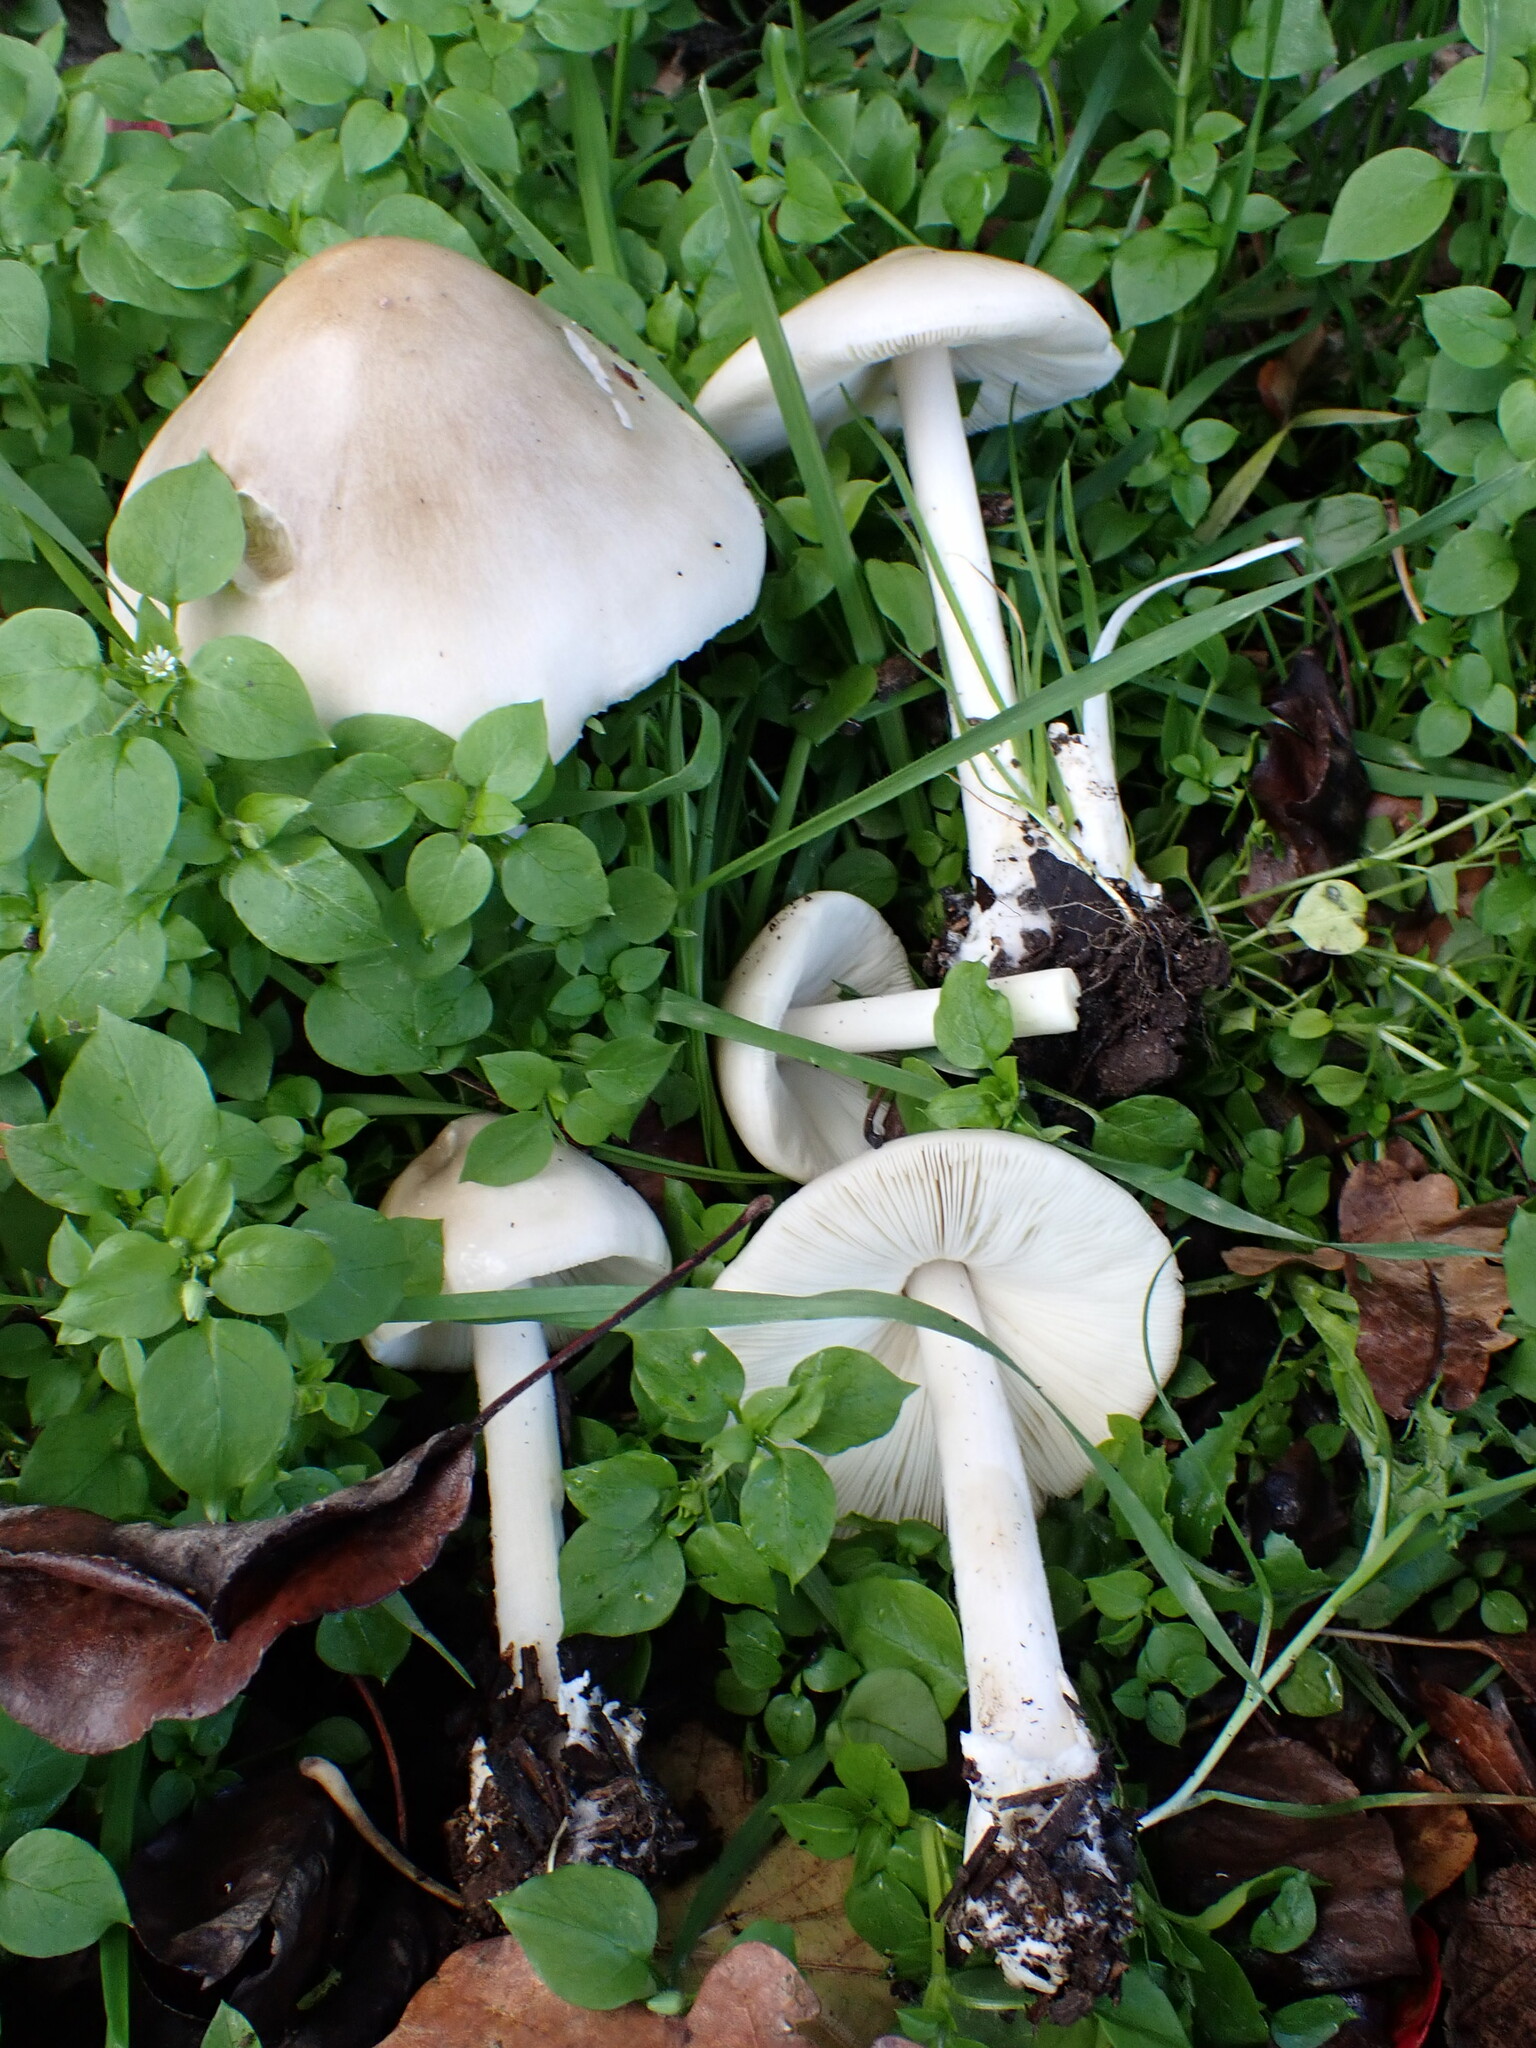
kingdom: Fungi
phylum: Basidiomycota
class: Agaricomycetes
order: Agaricales
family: Pluteaceae
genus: Volvopluteus
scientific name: Volvopluteus gloiocephalus
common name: Stubble rosegill
